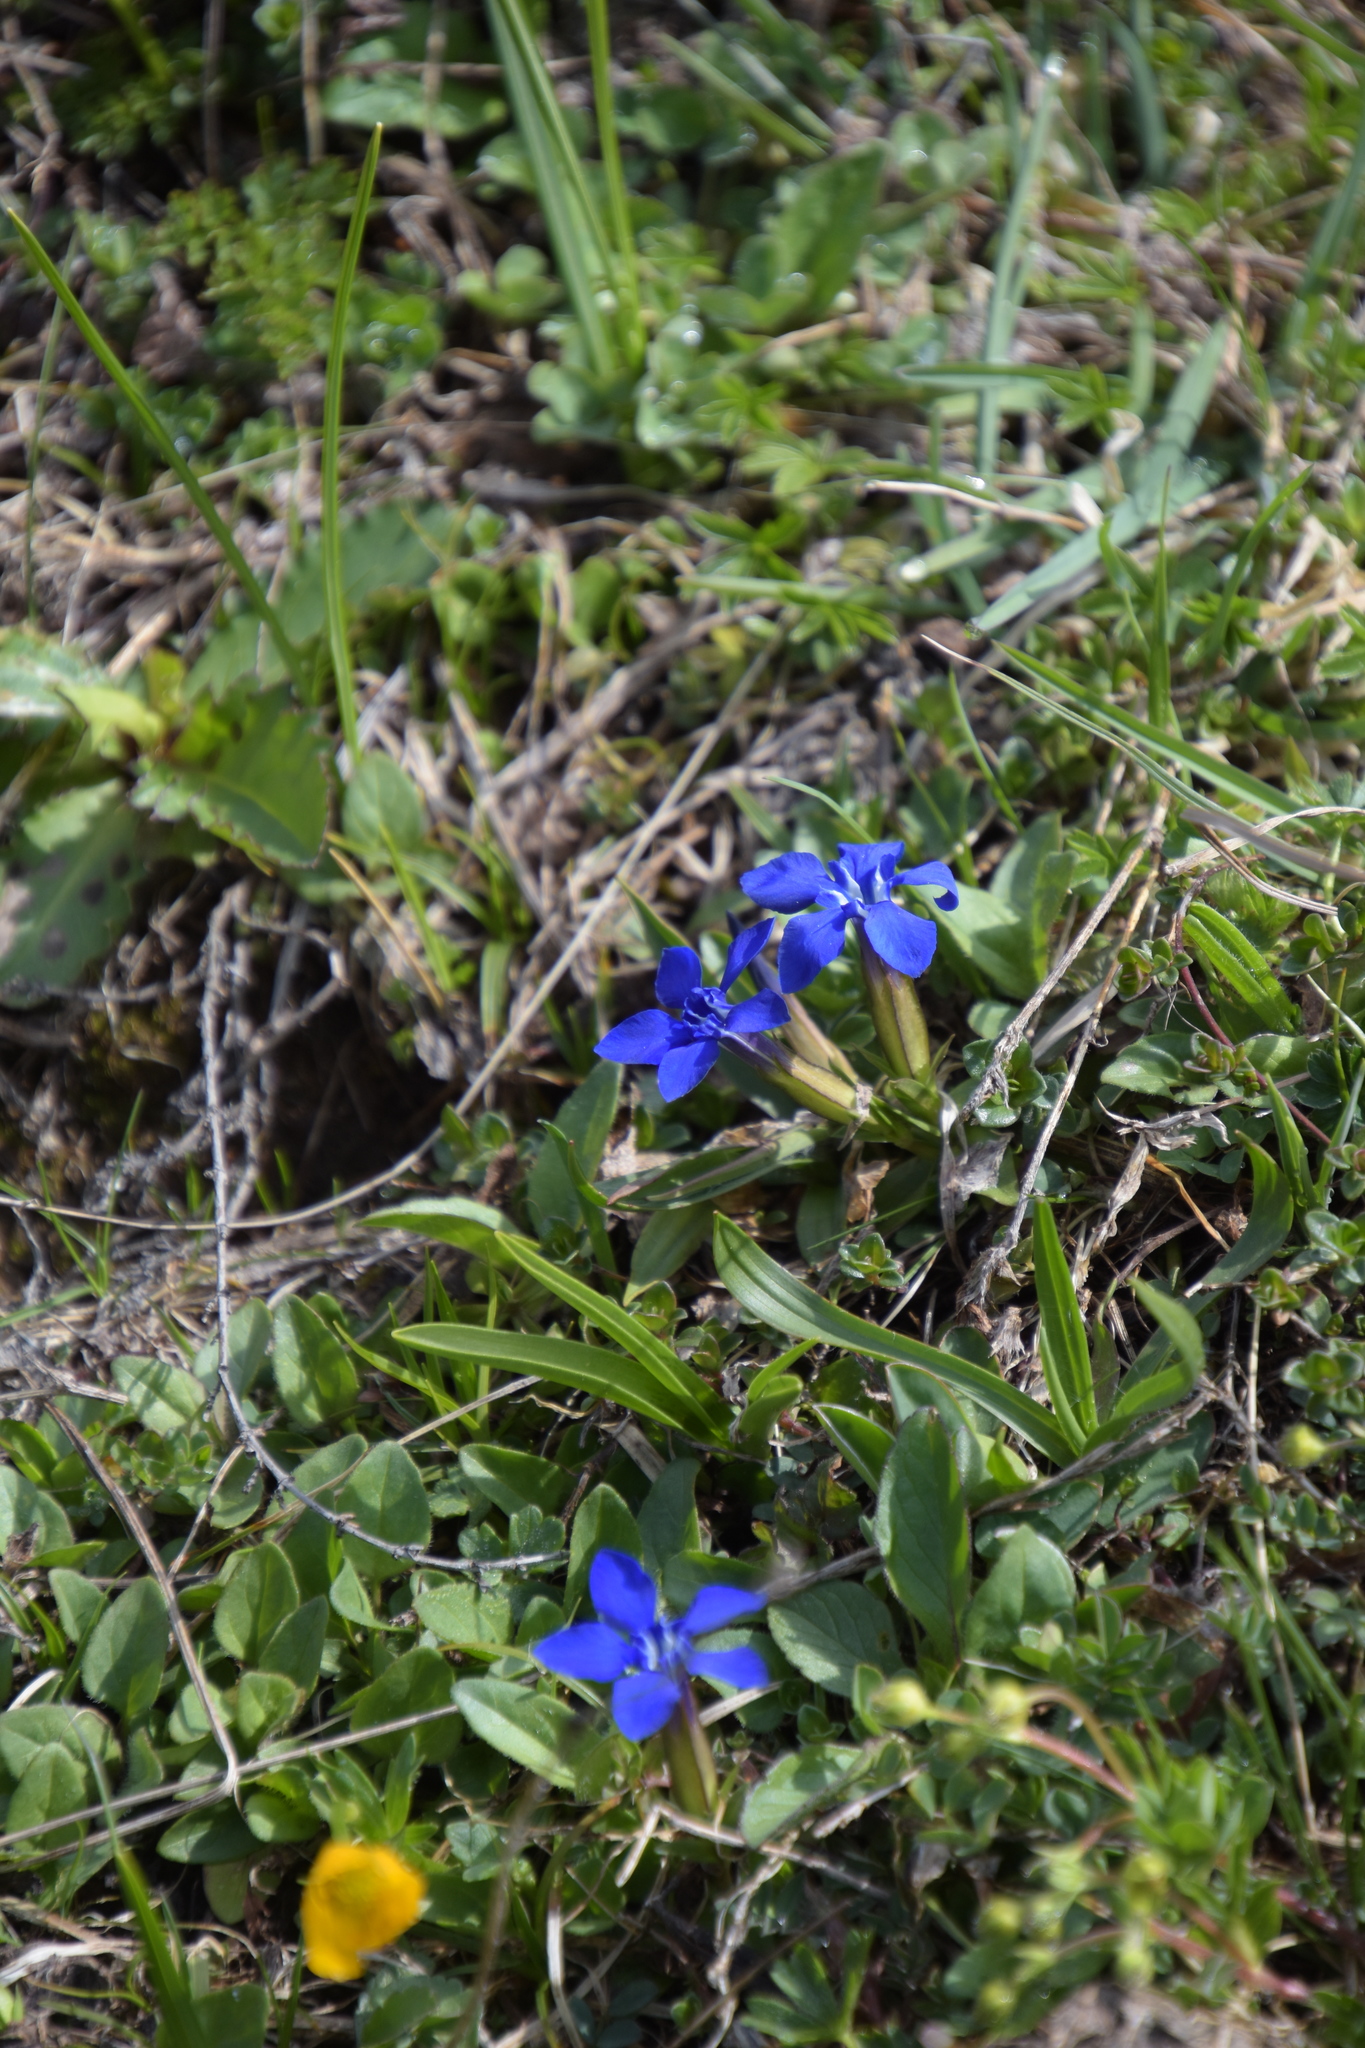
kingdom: Plantae
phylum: Tracheophyta
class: Magnoliopsida
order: Gentianales
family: Gentianaceae
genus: Gentiana
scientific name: Gentiana verna
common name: Spring gentian
